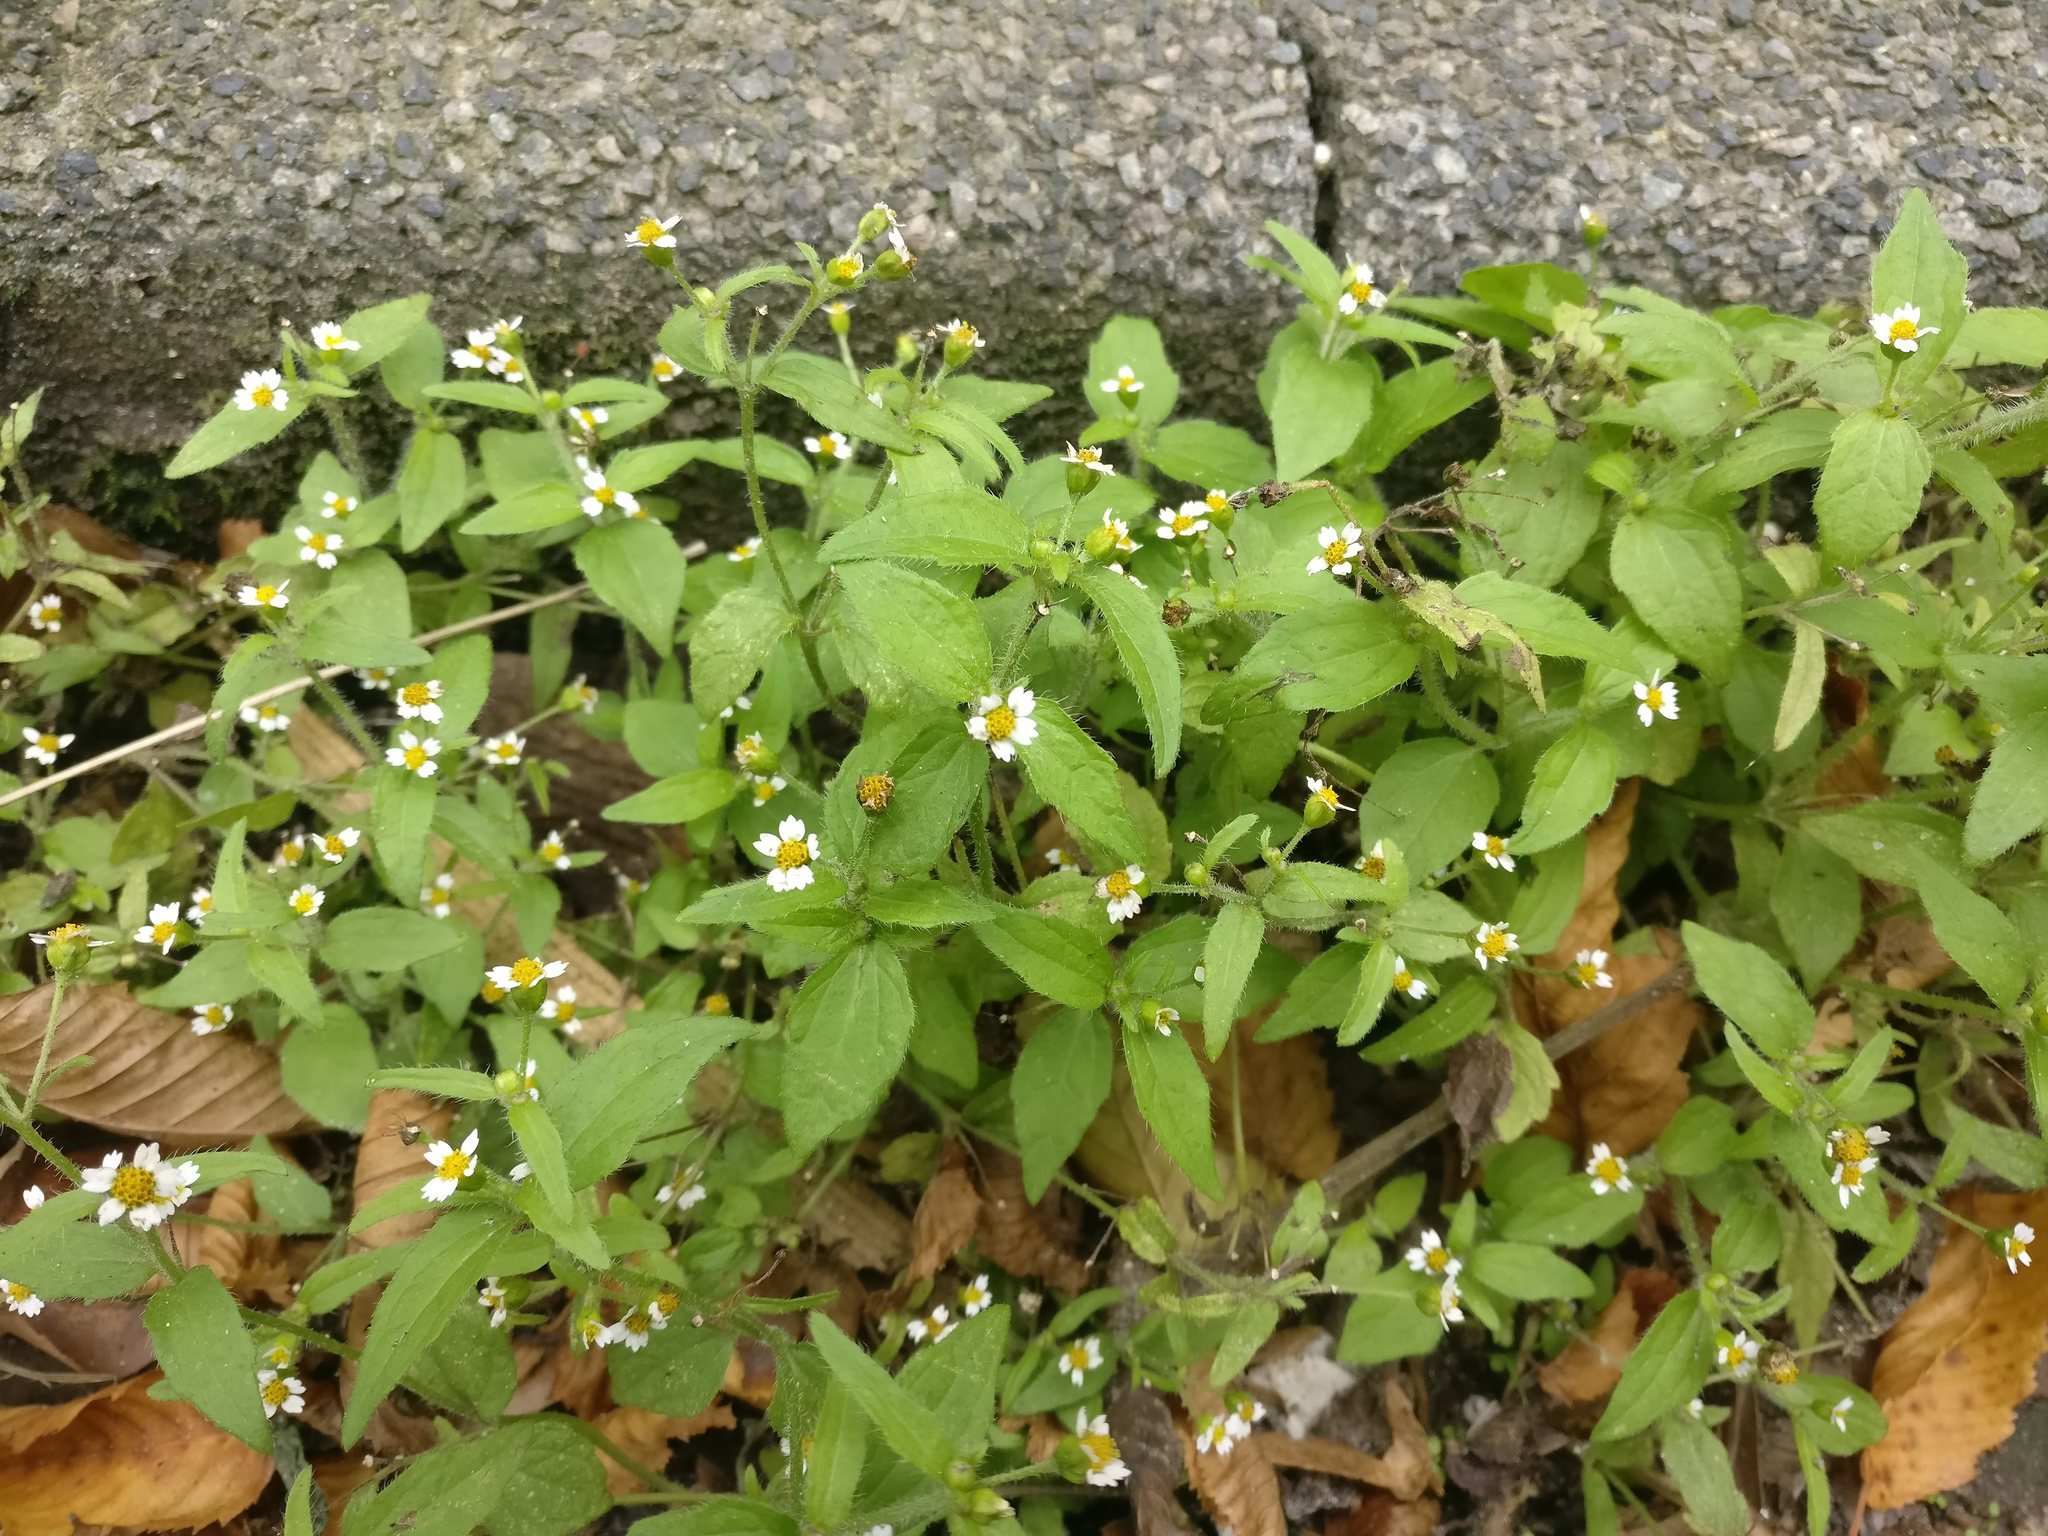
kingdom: Plantae
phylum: Tracheophyta
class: Magnoliopsida
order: Asterales
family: Asteraceae
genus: Galinsoga
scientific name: Galinsoga quadriradiata
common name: Shaggy soldier
